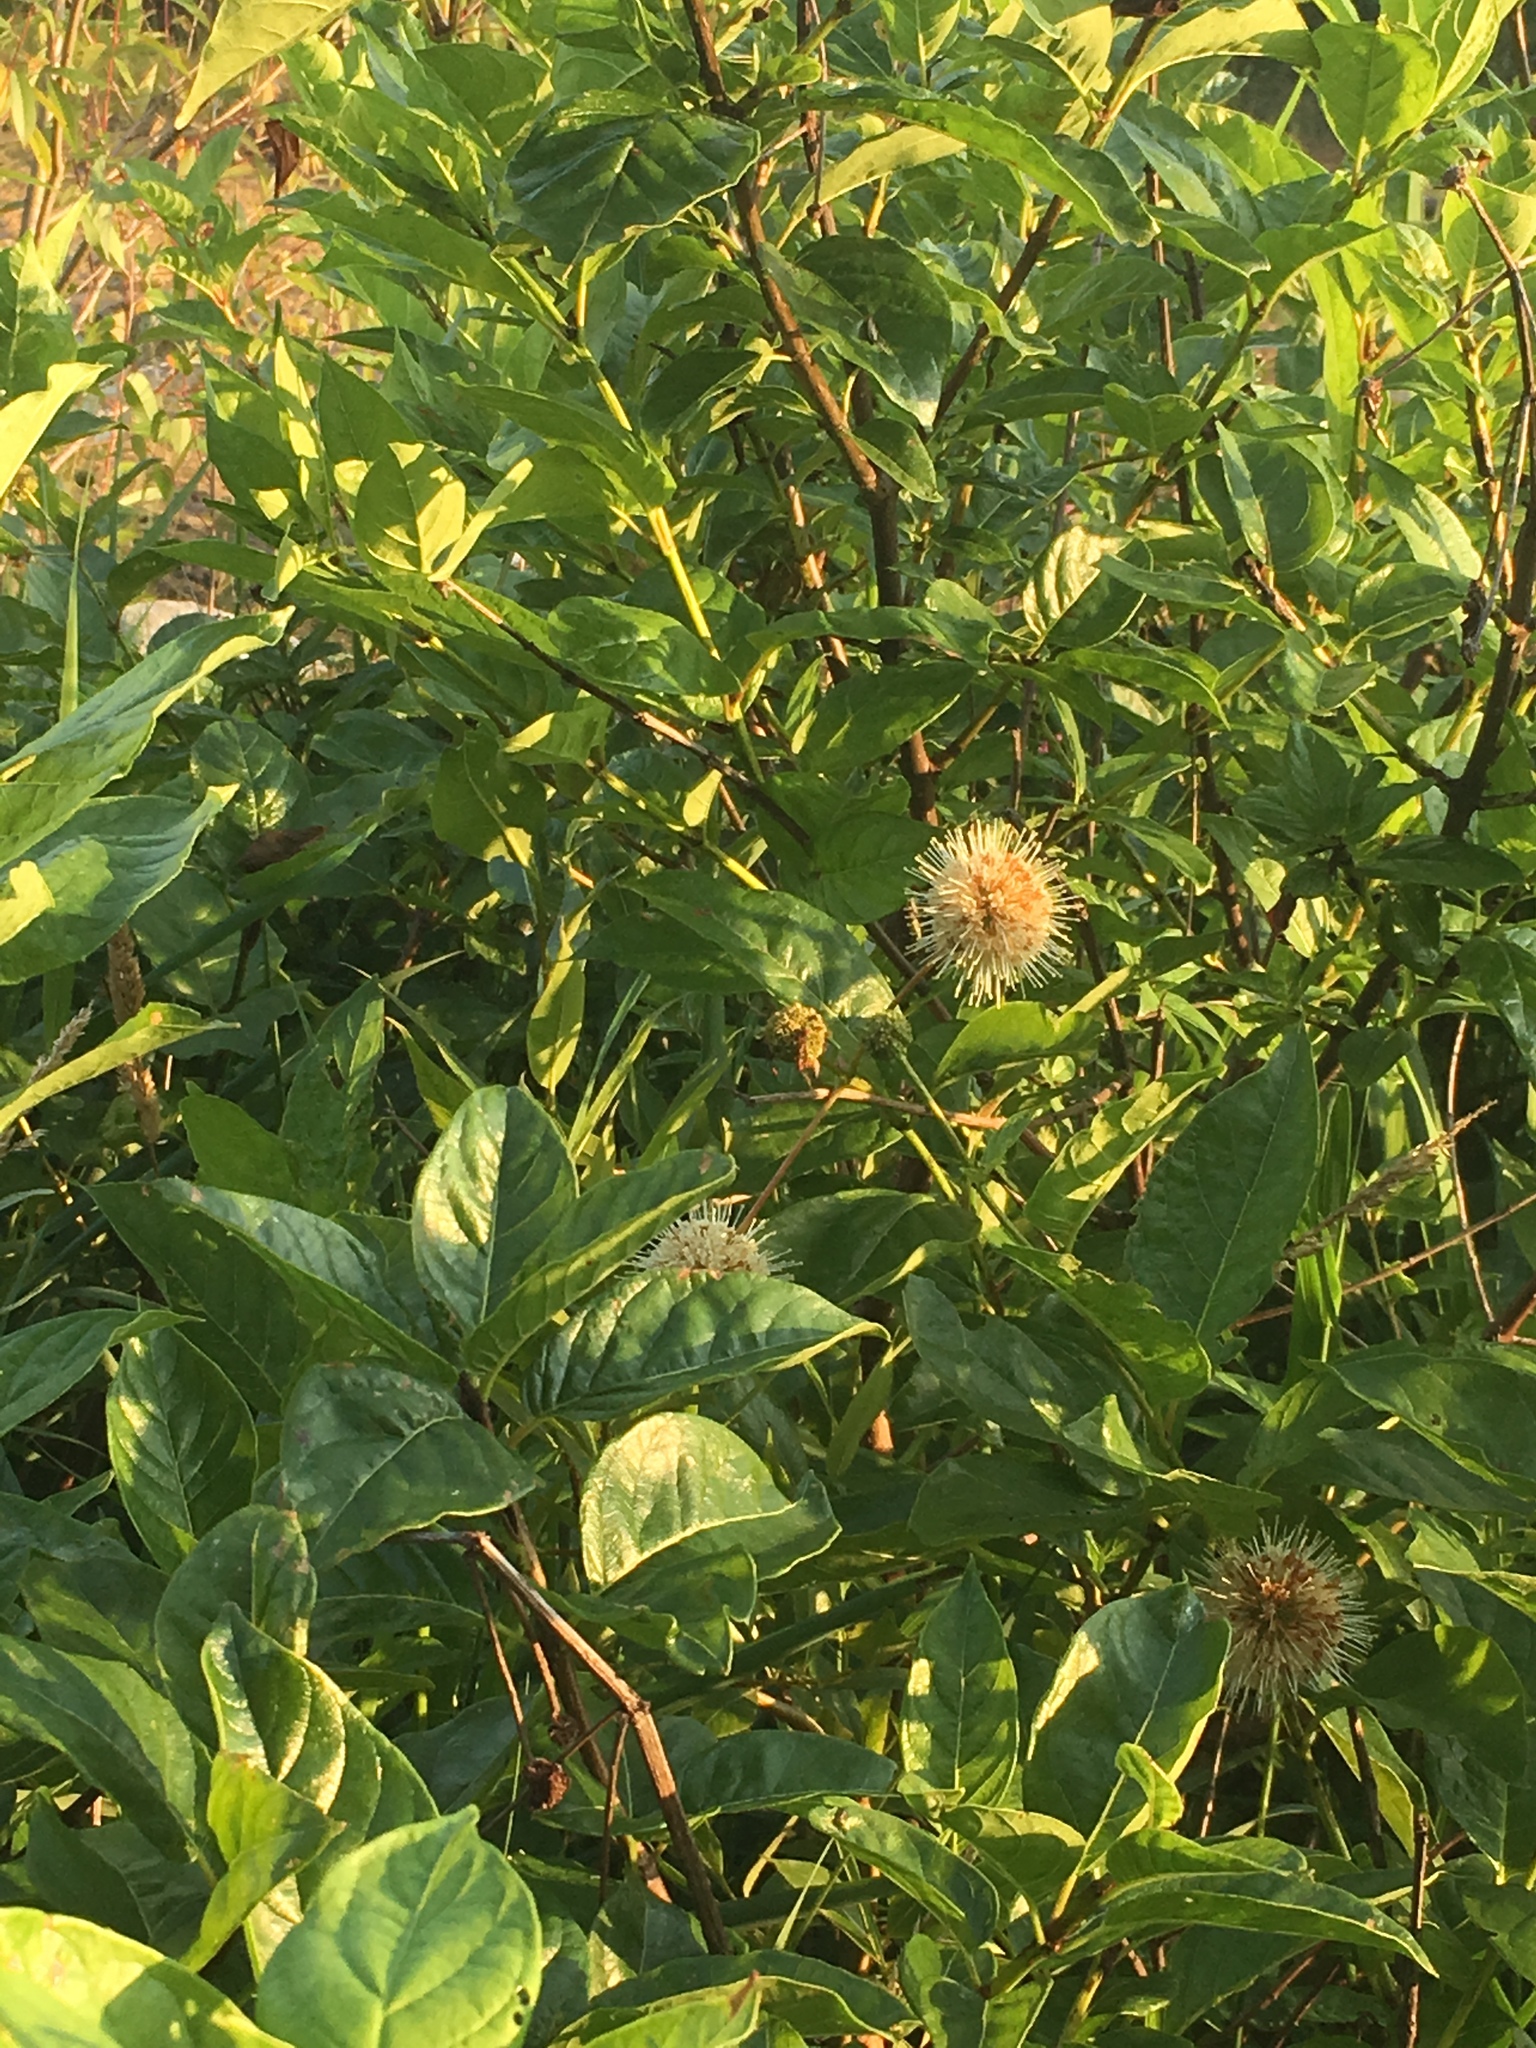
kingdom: Plantae
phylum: Tracheophyta
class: Magnoliopsida
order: Gentianales
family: Rubiaceae
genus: Cephalanthus
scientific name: Cephalanthus occidentalis
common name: Button-willow
